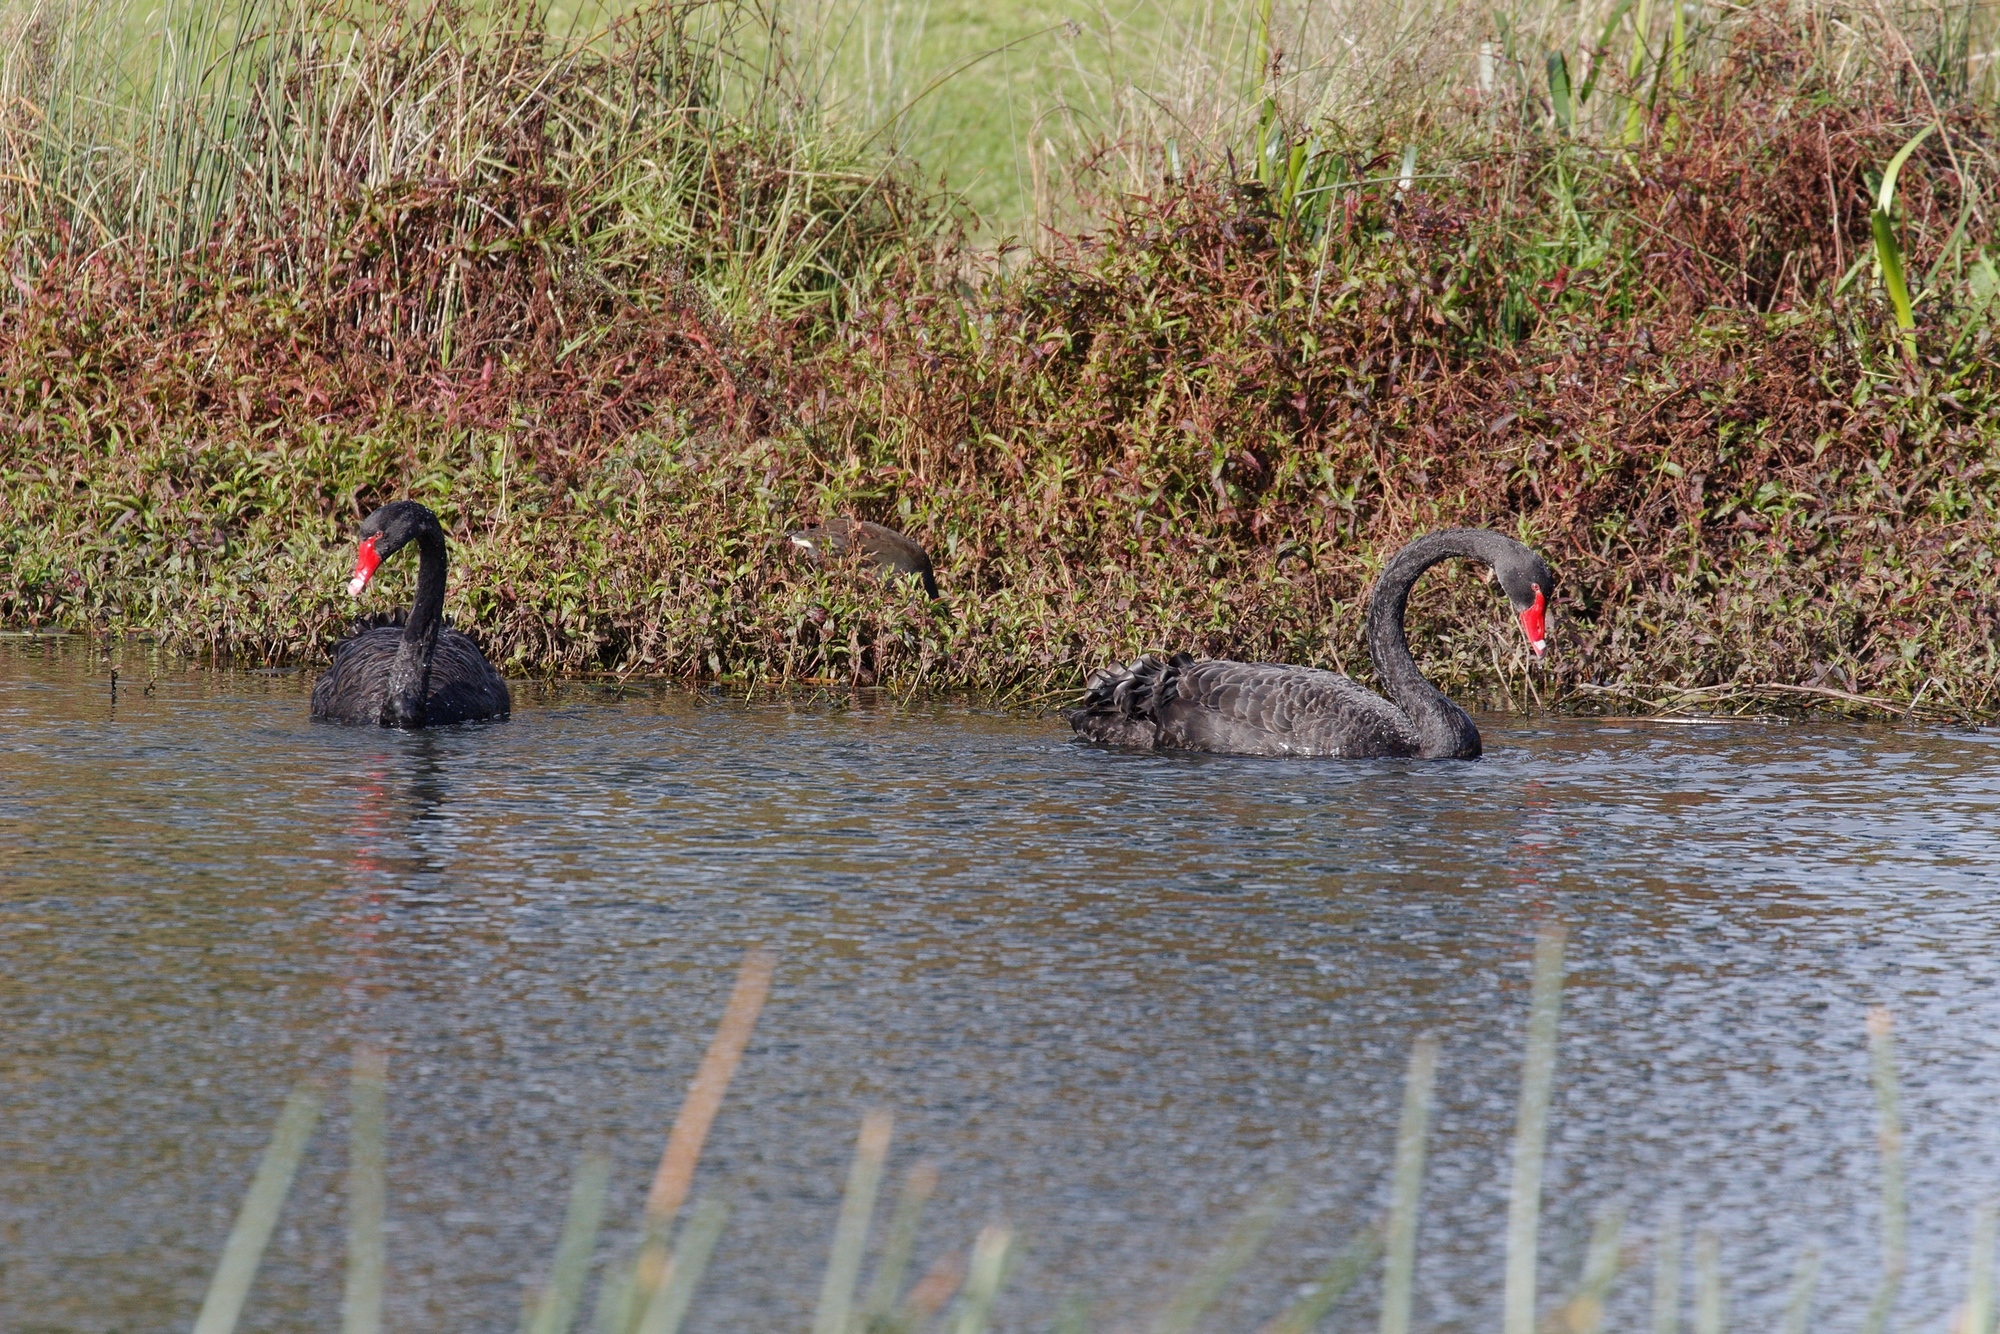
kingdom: Animalia
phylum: Chordata
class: Aves
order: Anseriformes
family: Anatidae
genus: Cygnus
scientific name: Cygnus atratus
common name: Black swan
